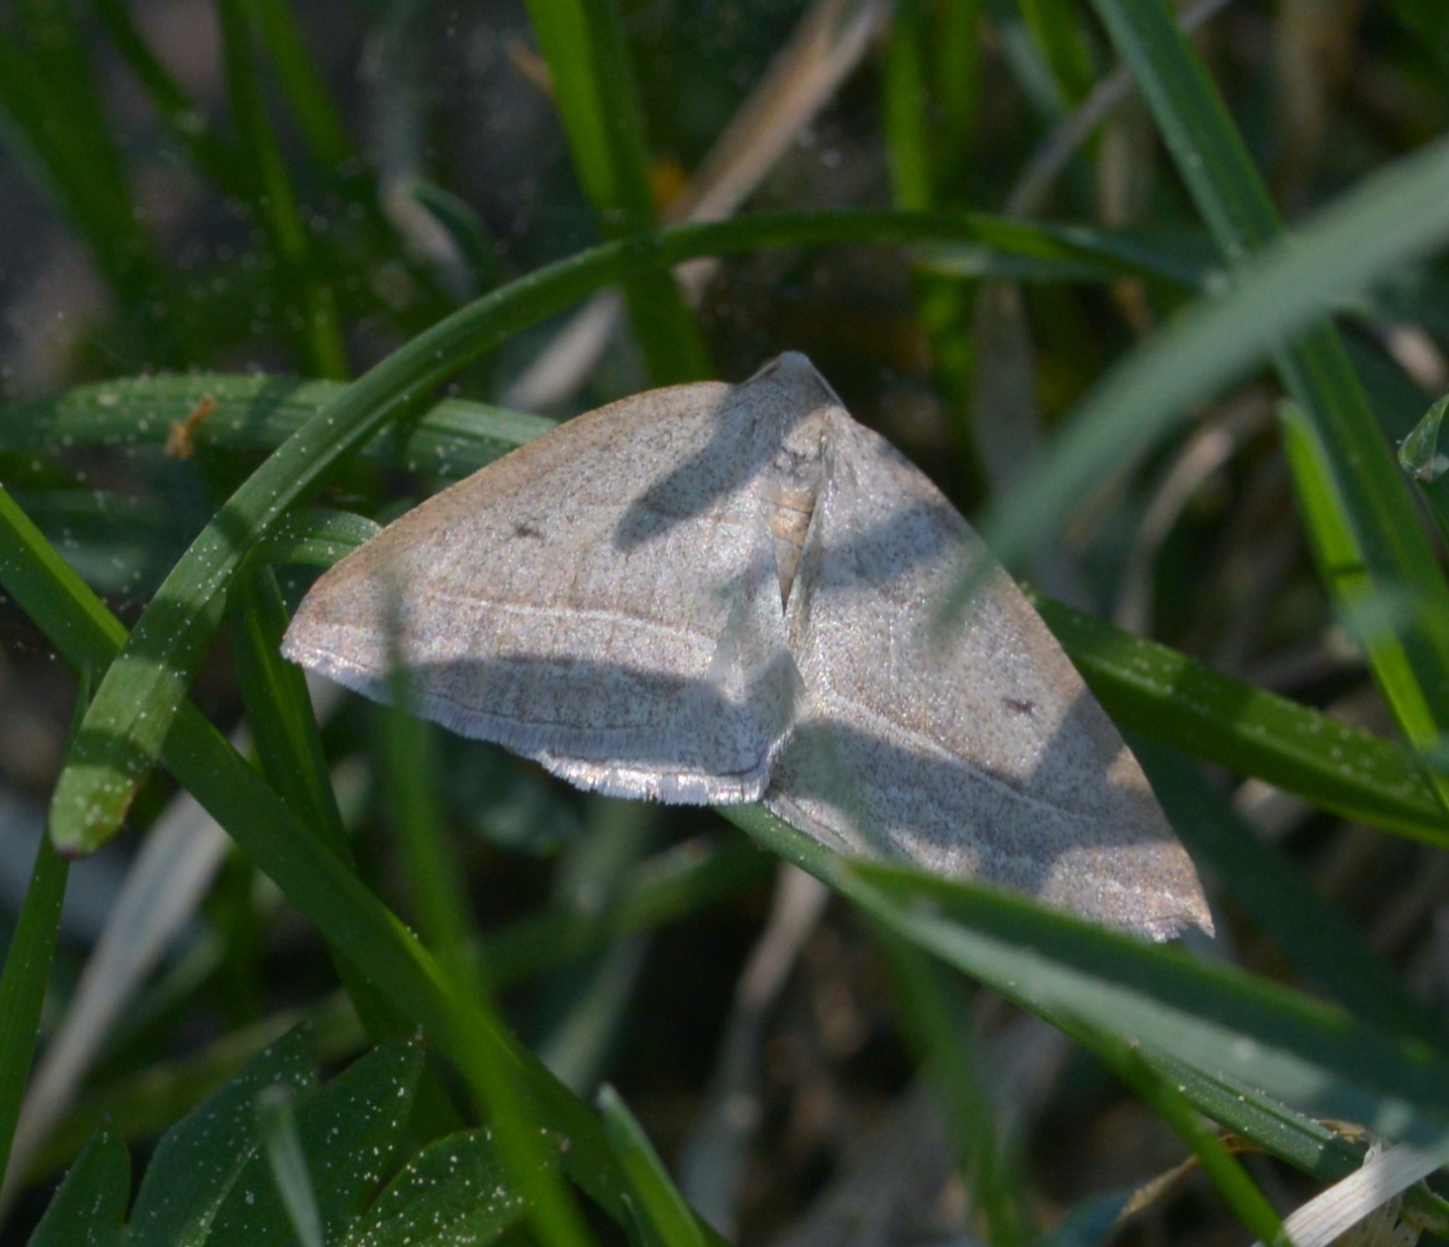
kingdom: Animalia
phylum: Arthropoda
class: Insecta
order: Lepidoptera
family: Pterophoridae
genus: Pterophorus
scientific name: Pterophorus Petrophora chlorosata
